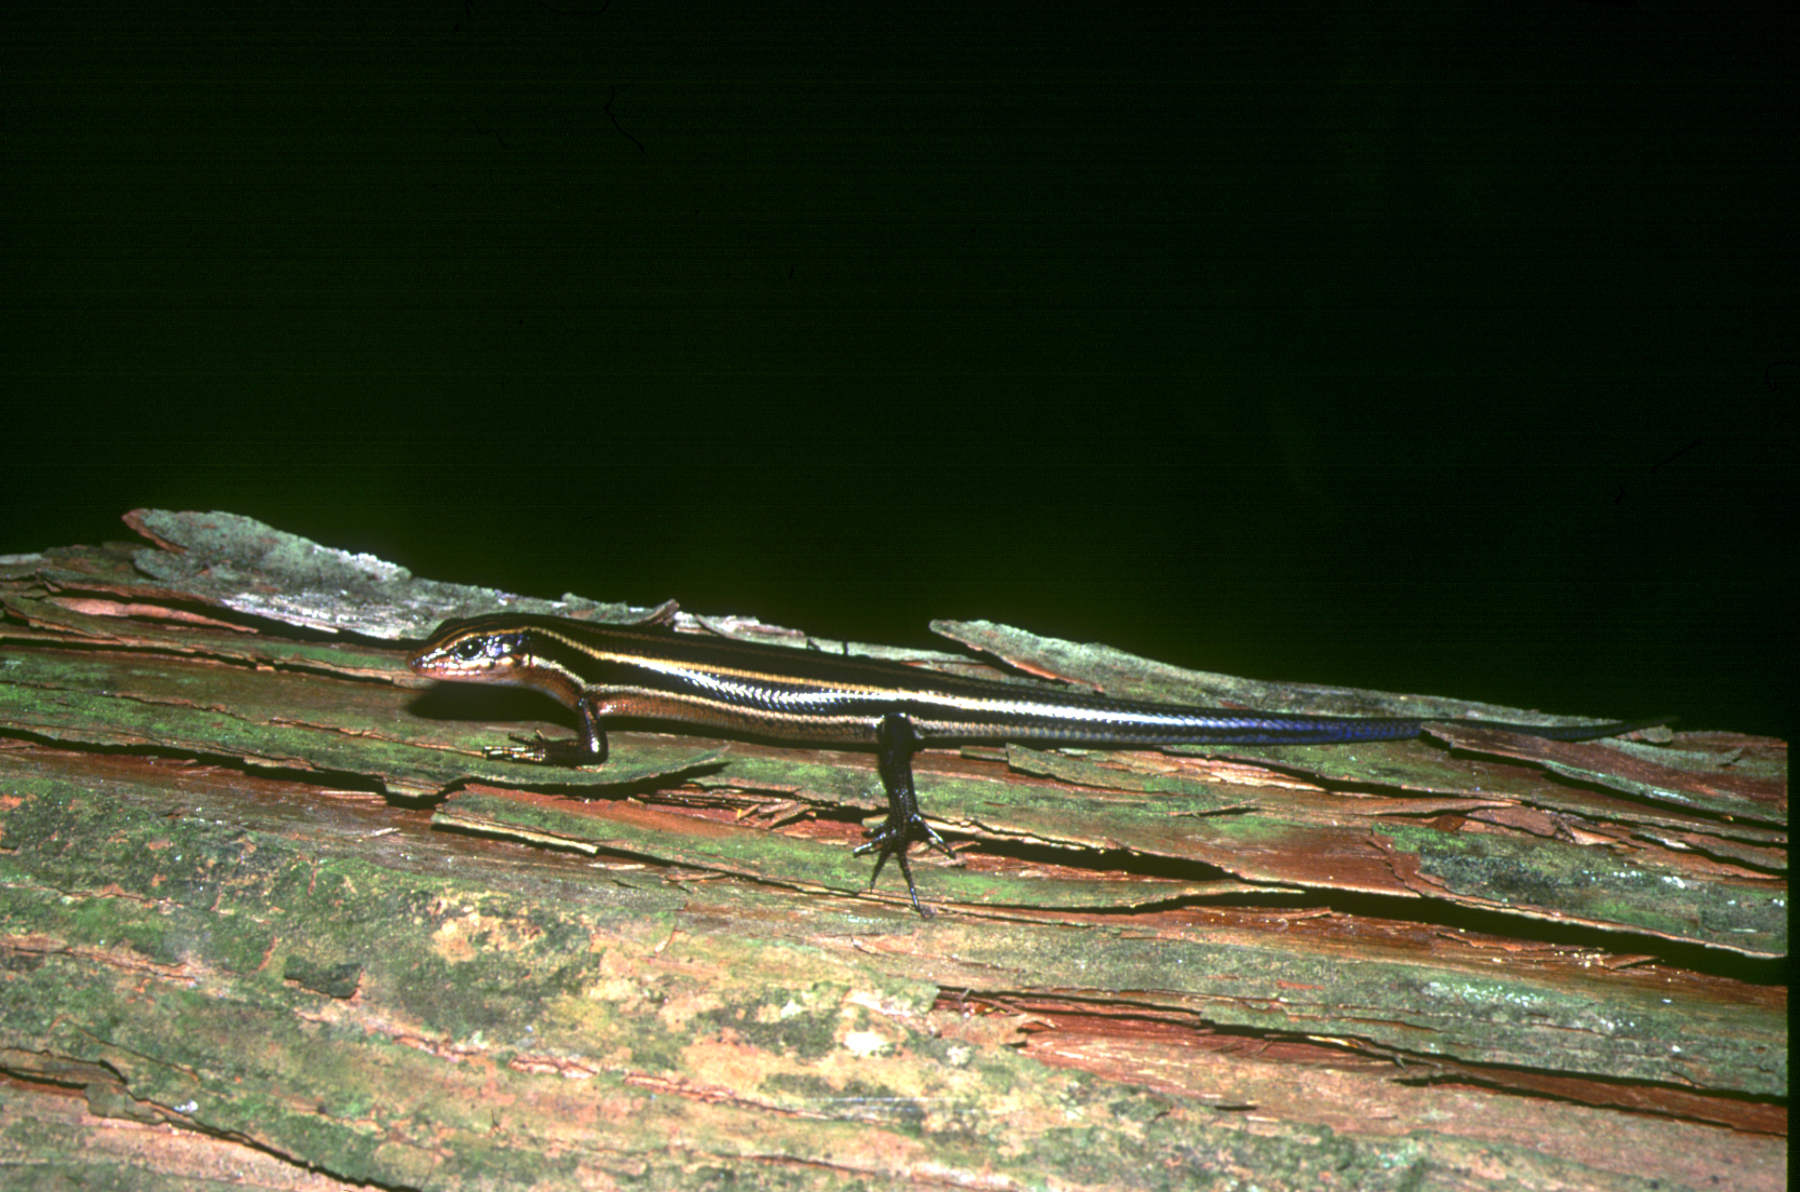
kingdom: Animalia
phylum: Chordata
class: Squamata
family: Scincidae
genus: Plestiodon
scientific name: Plestiodon japonicus
